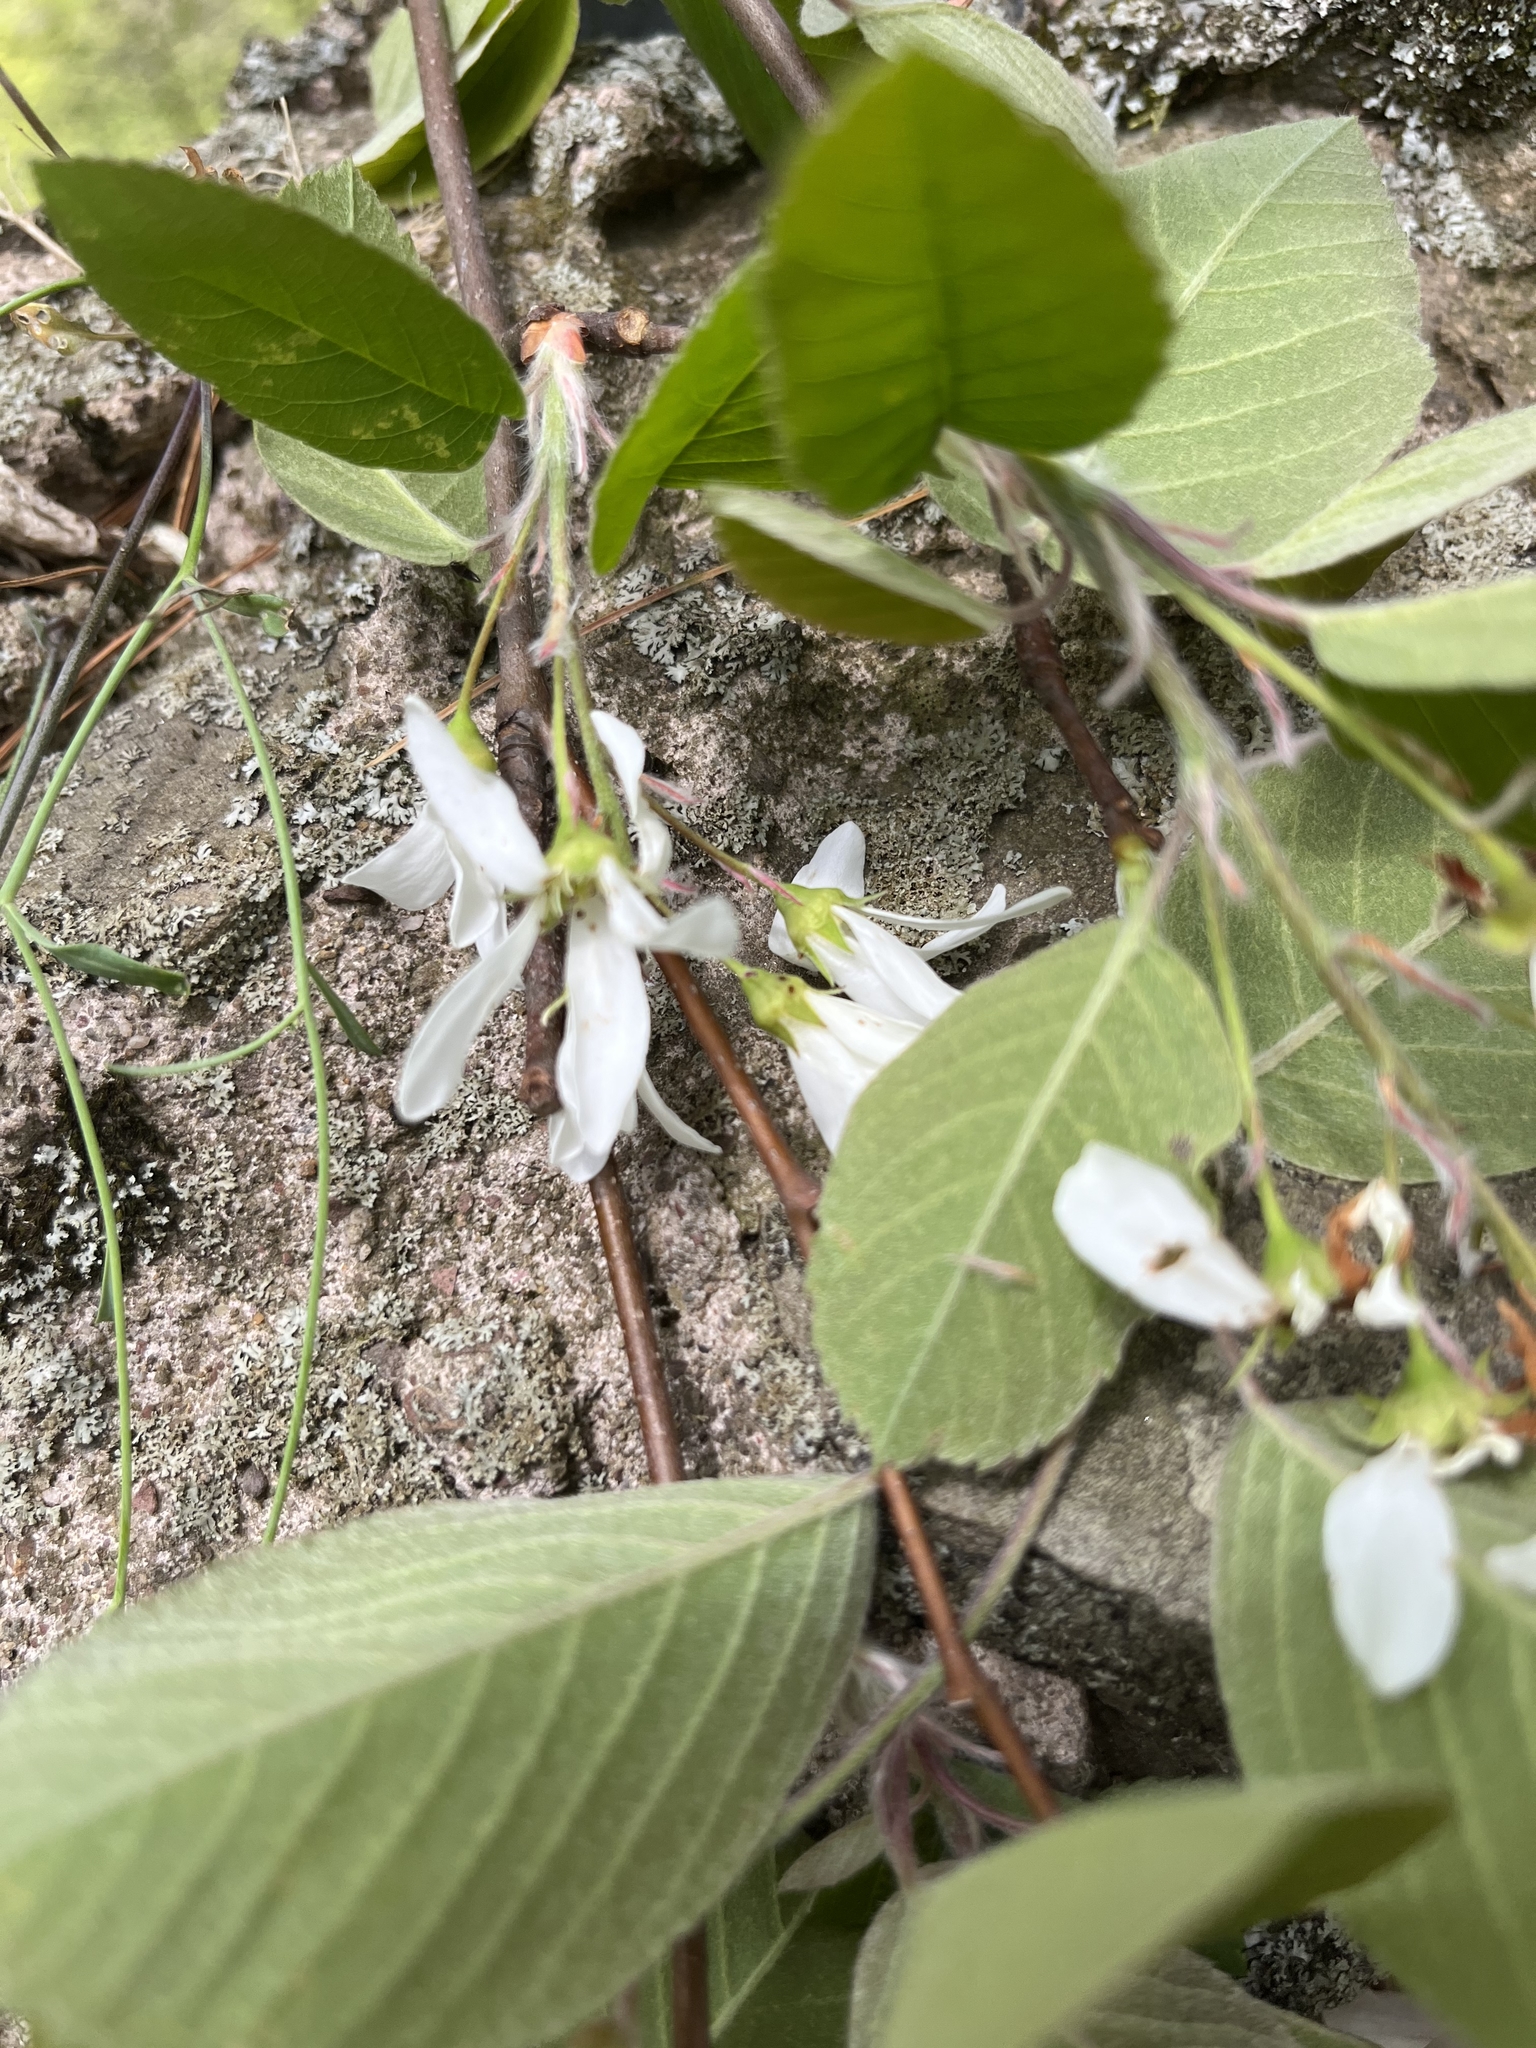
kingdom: Plantae
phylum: Tracheophyta
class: Magnoliopsida
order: Rosales
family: Rosaceae
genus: Amelanchier
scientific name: Amelanchier sanguinea
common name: Huron serviceberry
